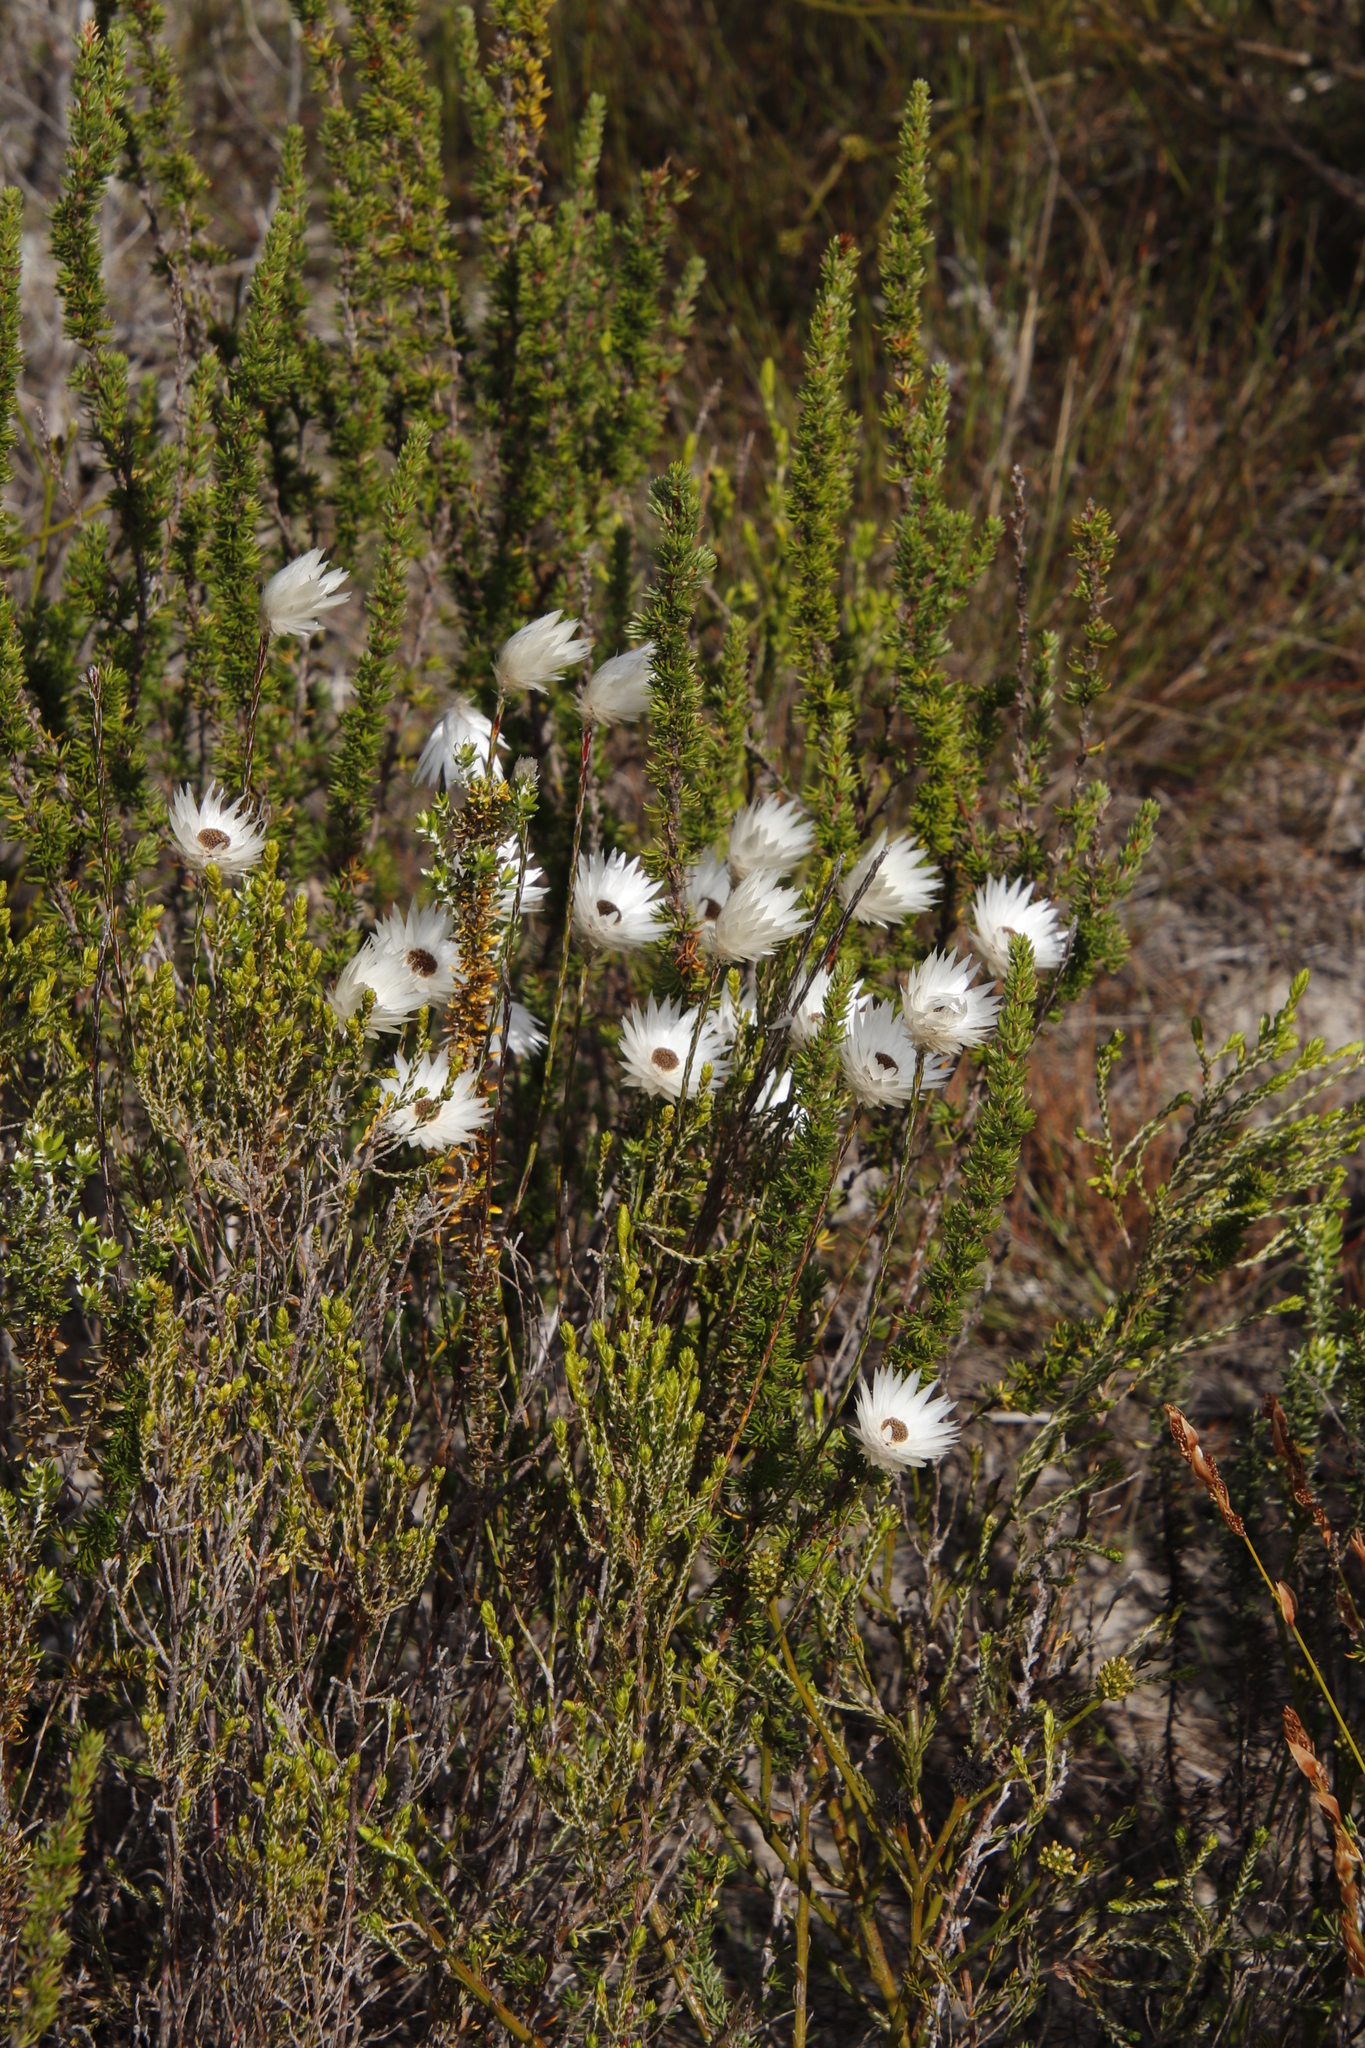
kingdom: Plantae
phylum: Tracheophyta
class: Magnoliopsida
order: Asterales
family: Asteraceae
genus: Edmondia
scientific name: Edmondia sesamoides
